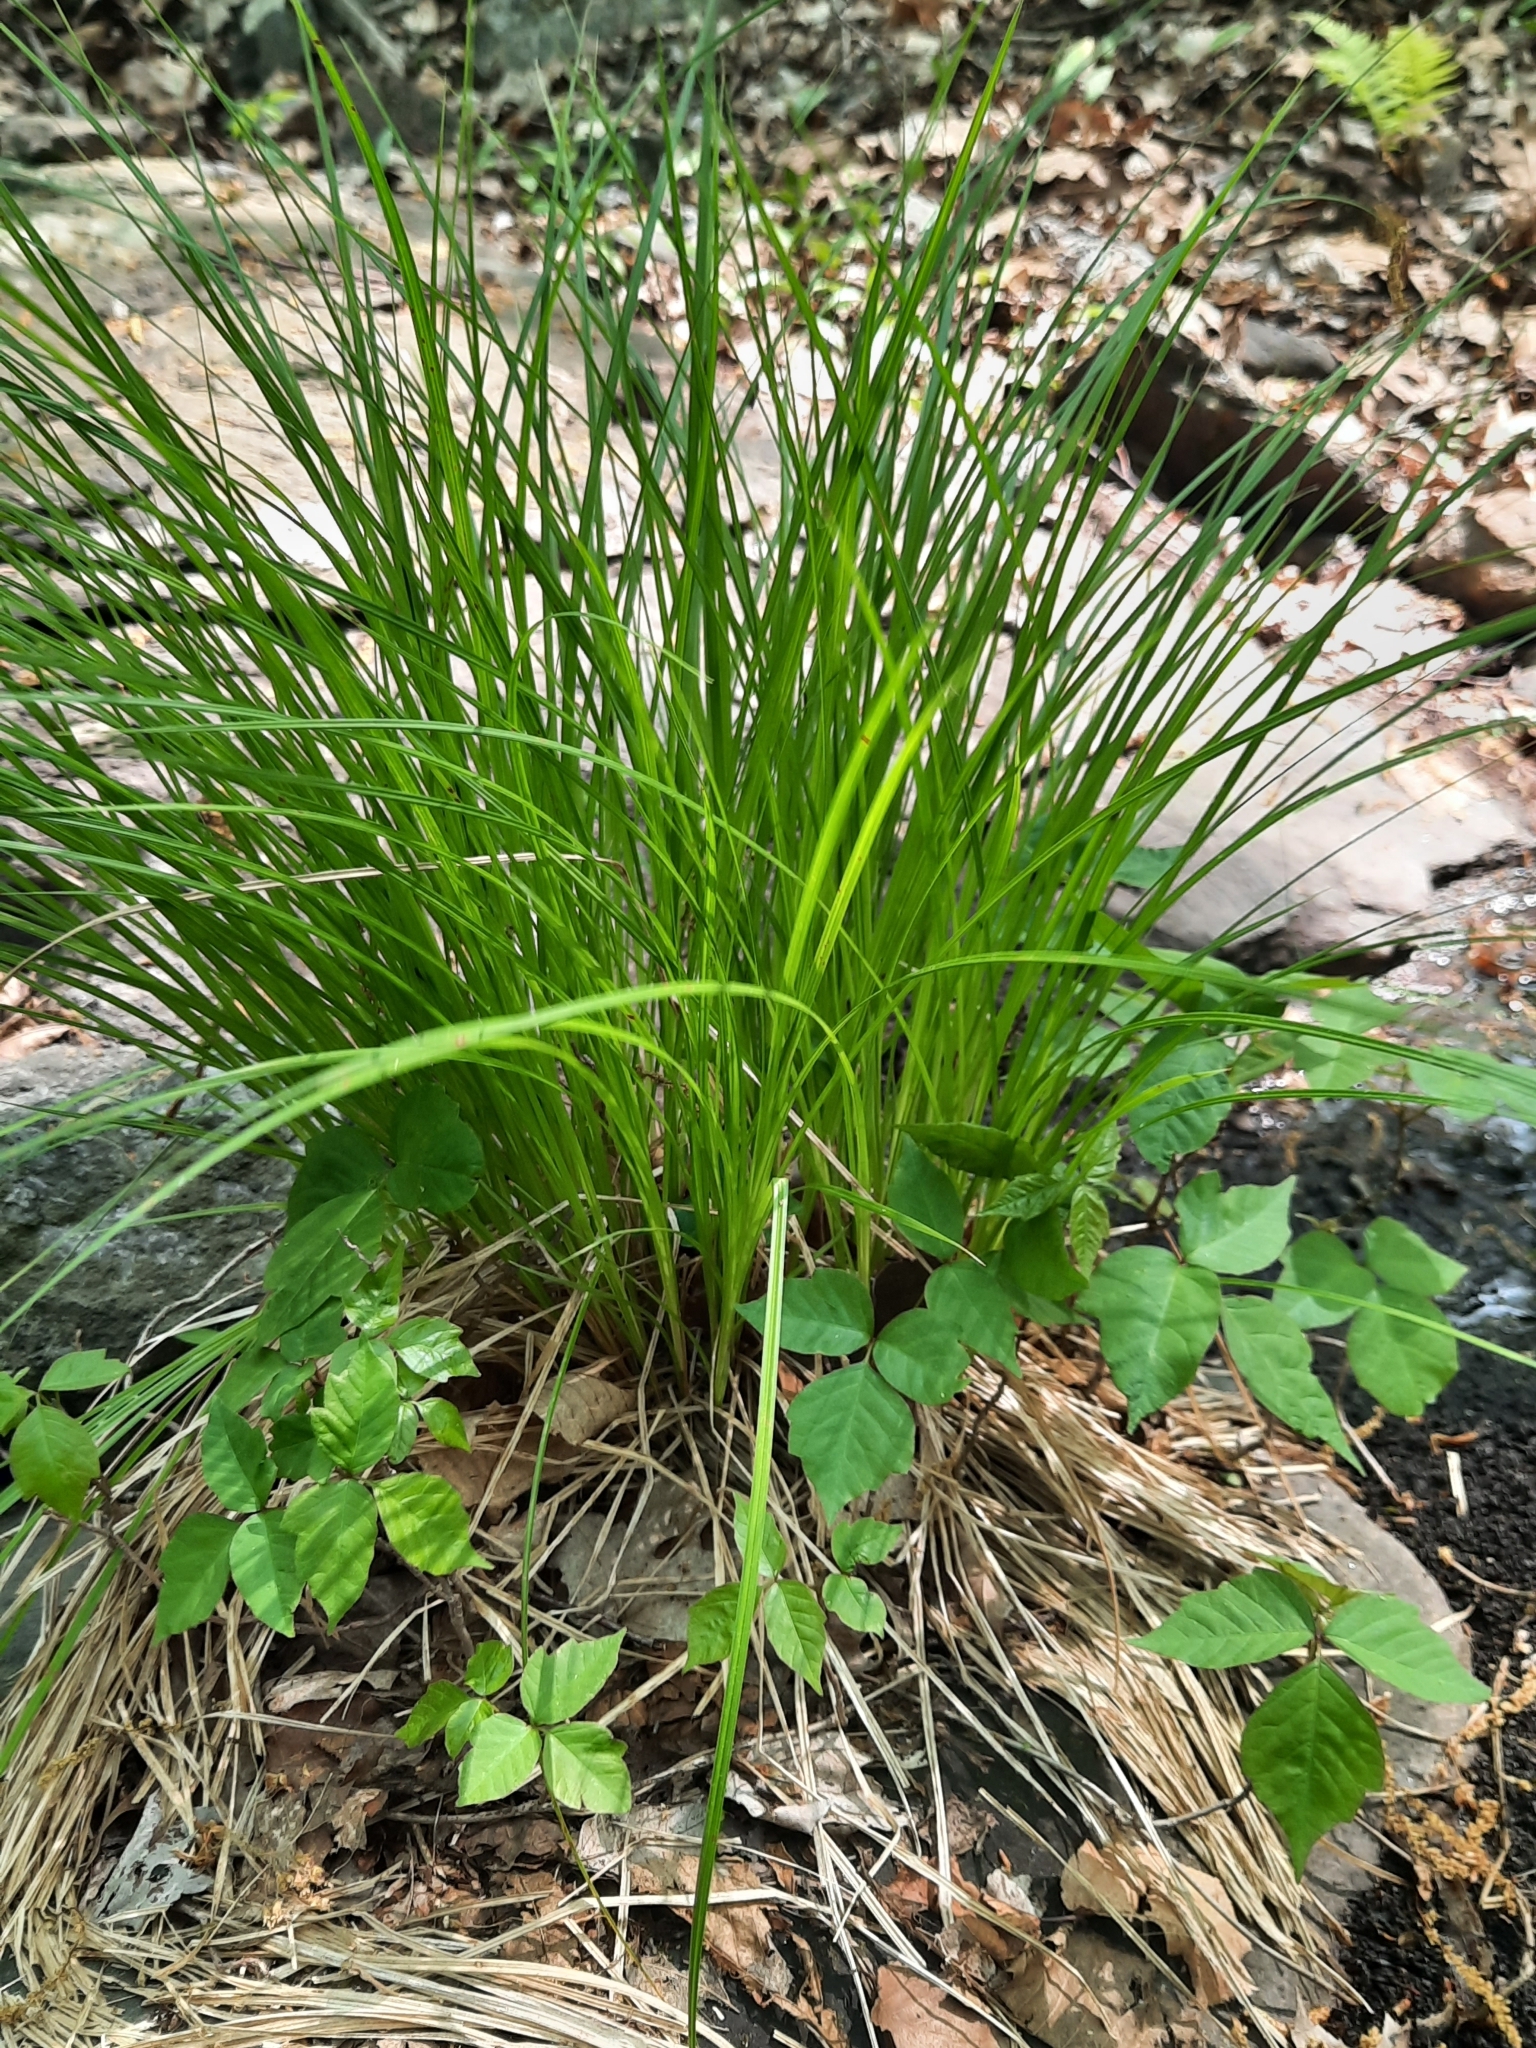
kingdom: Plantae
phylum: Tracheophyta
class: Magnoliopsida
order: Sapindales
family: Anacardiaceae
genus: Toxicodendron
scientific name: Toxicodendron radicans
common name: Poison ivy
